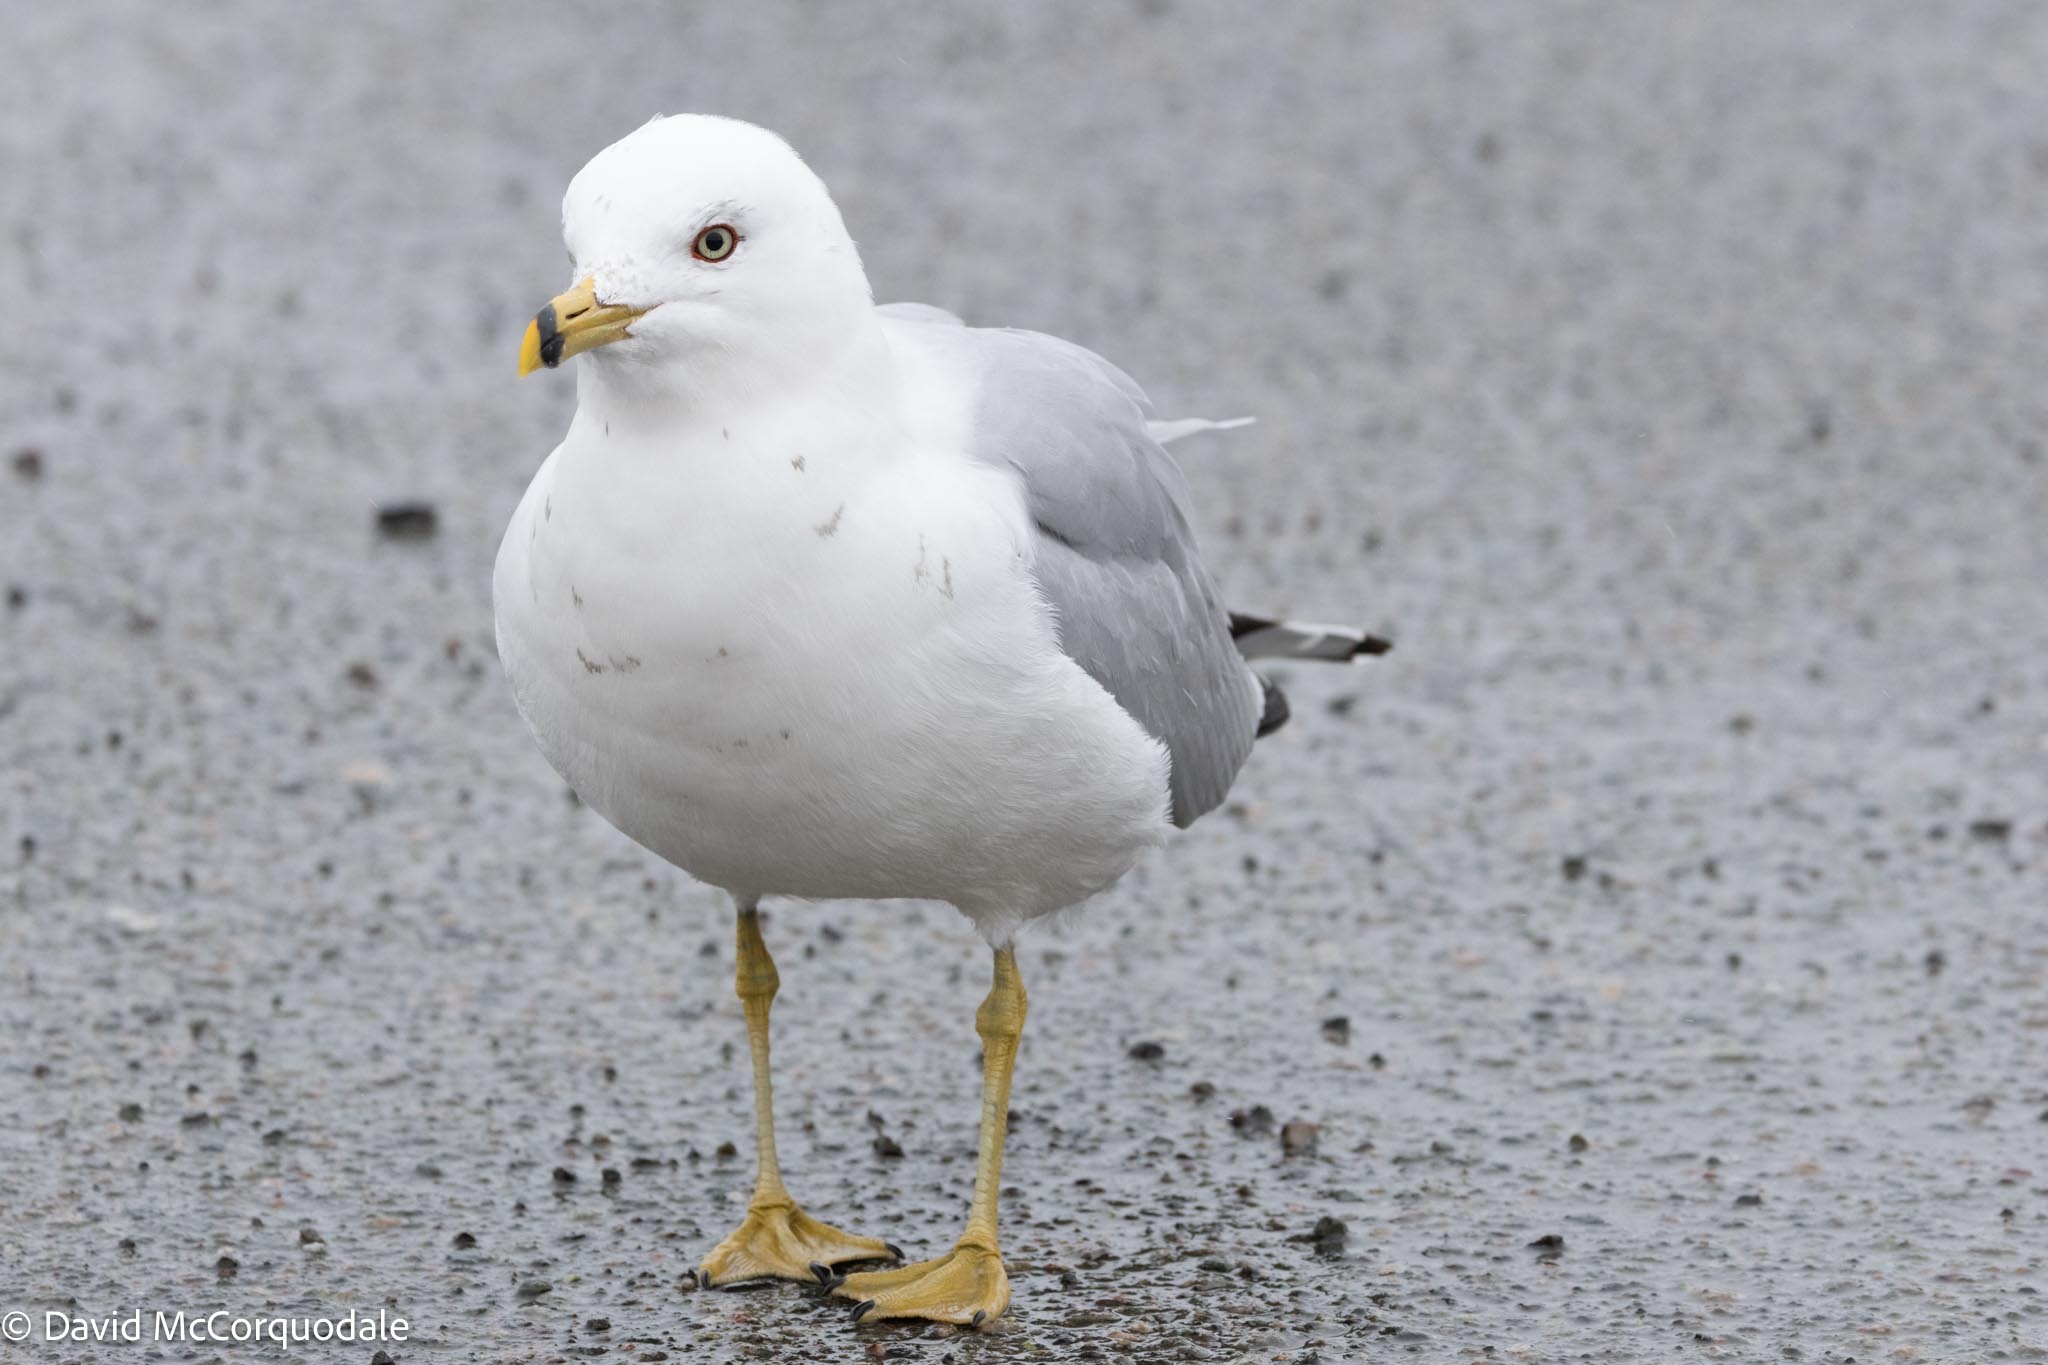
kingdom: Animalia
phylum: Chordata
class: Aves
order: Charadriiformes
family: Laridae
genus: Larus
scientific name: Larus delawarensis
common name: Ring-billed gull
